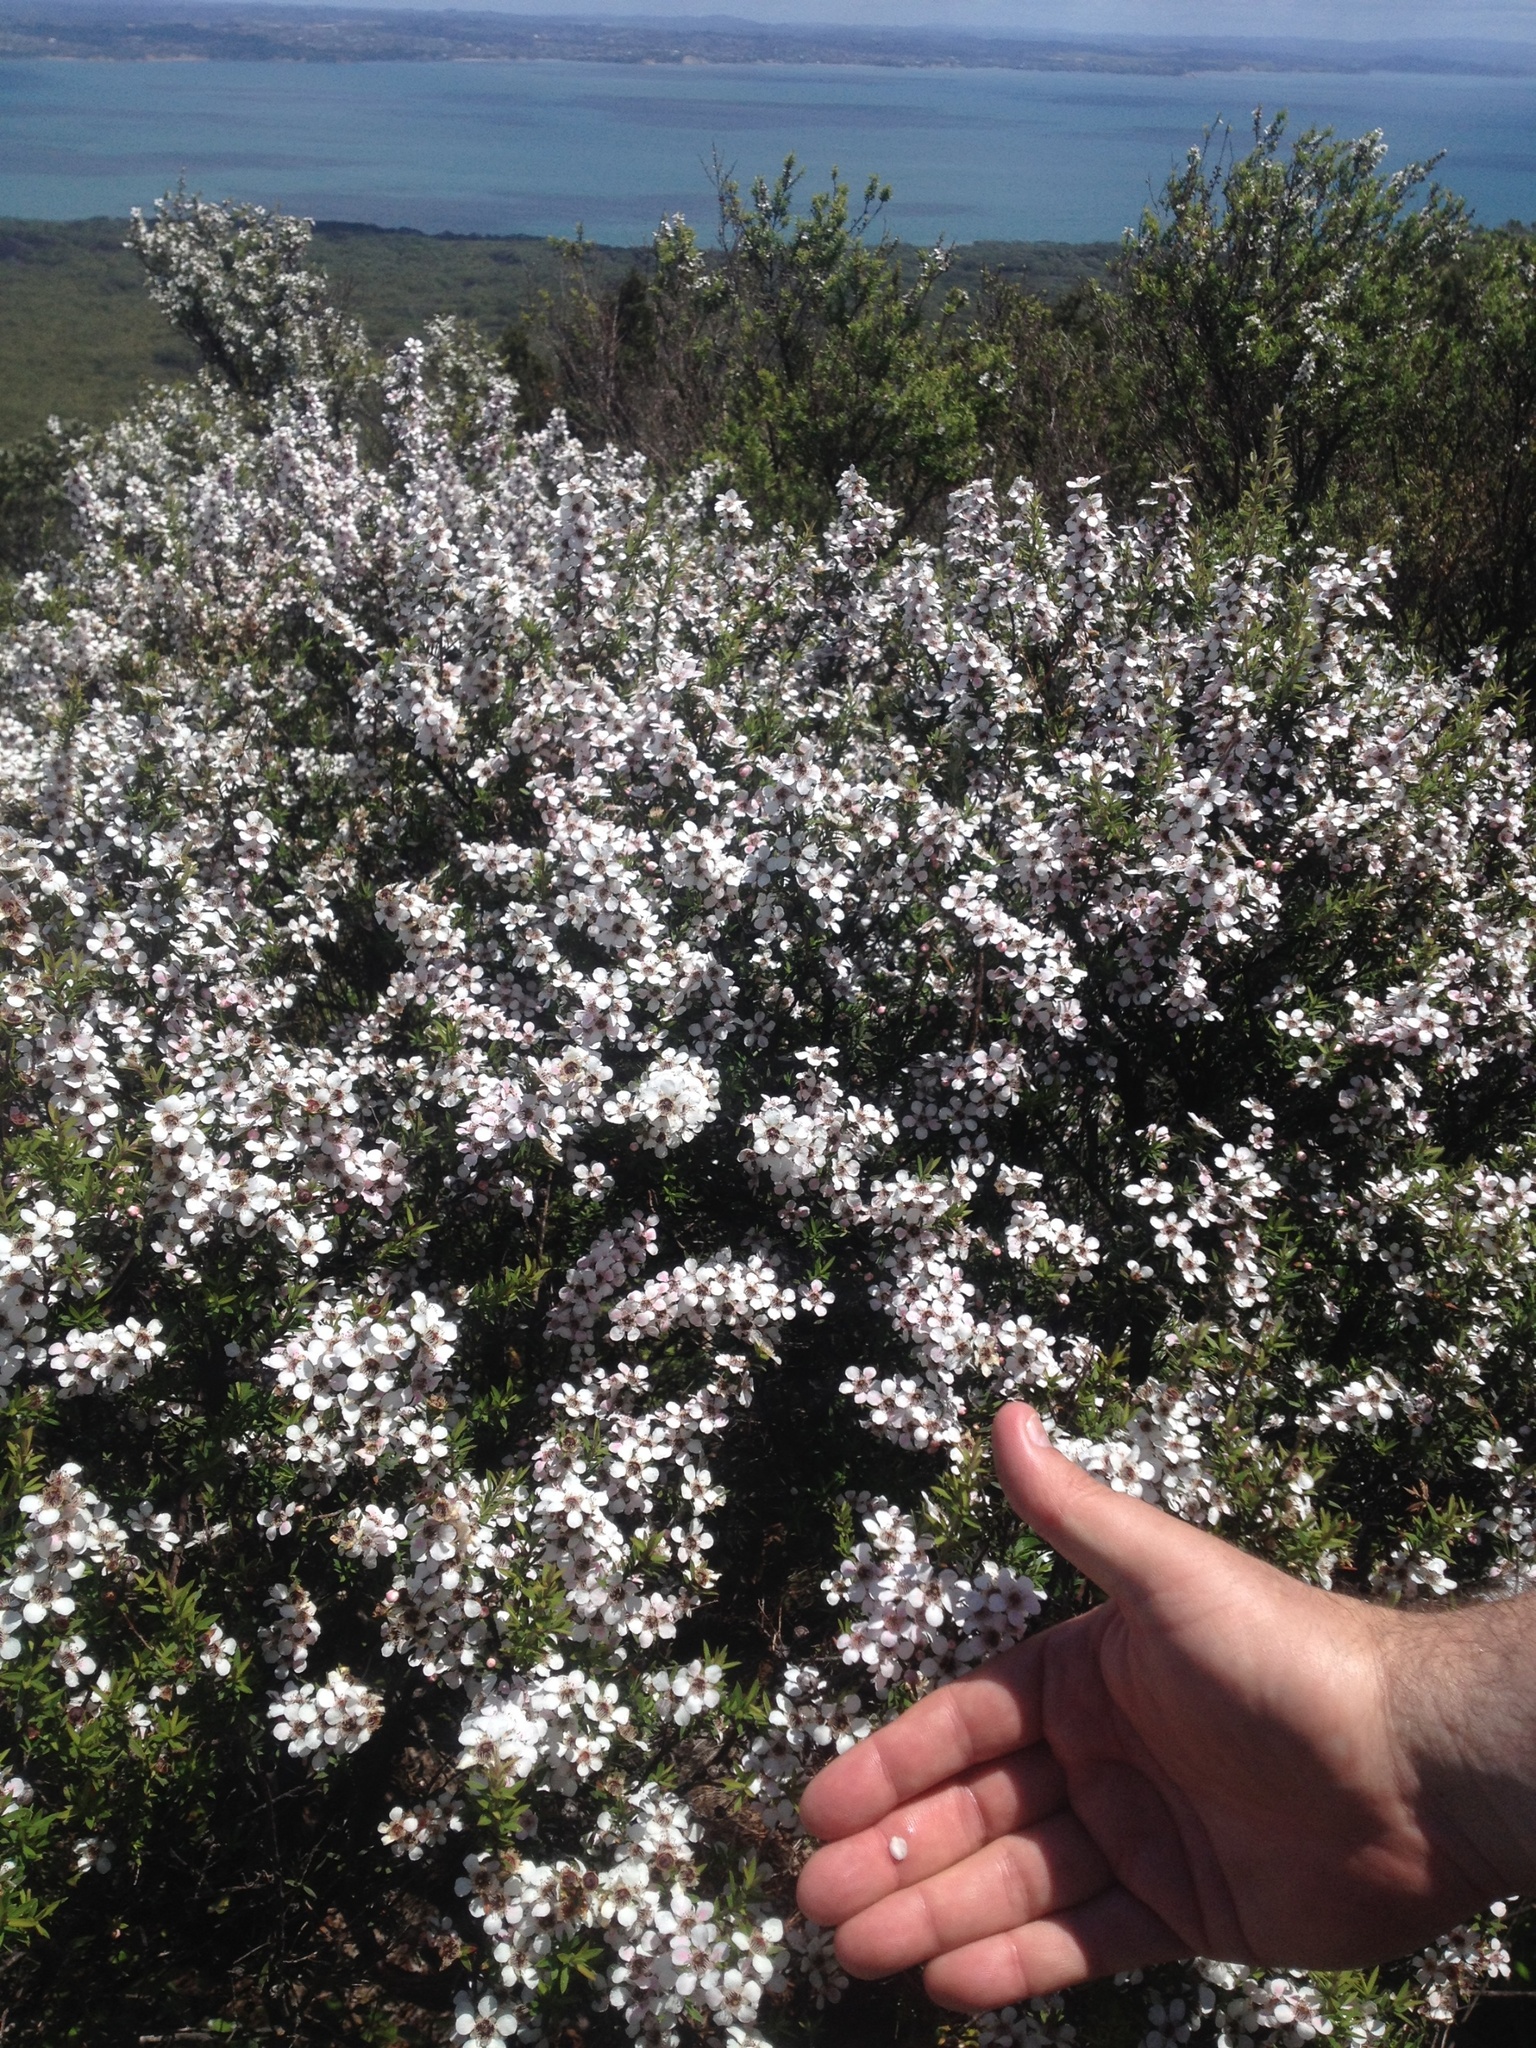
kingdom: Plantae
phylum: Tracheophyta
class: Magnoliopsida
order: Myrtales
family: Myrtaceae
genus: Leptospermum
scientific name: Leptospermum scoparium
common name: Broom tea-tree
